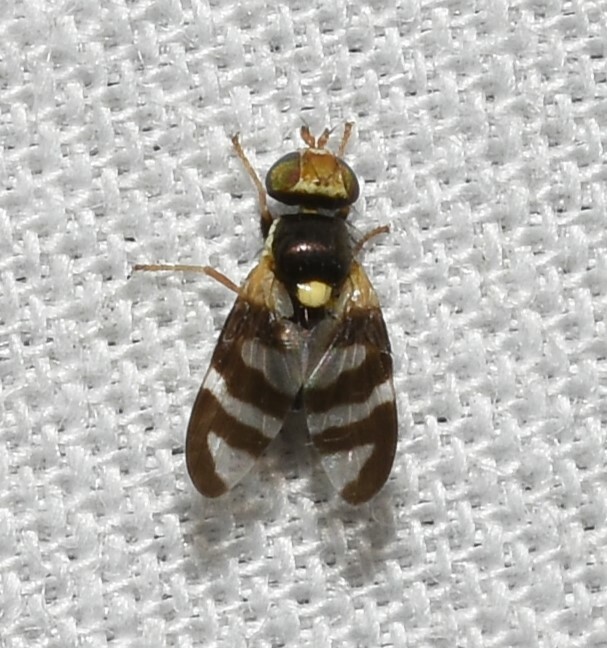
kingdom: Animalia
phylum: Arthropoda
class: Insecta
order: Diptera
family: Tephritidae
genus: Urophora
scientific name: Urophora quadrifasciata
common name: Knapweed seedhead fly
